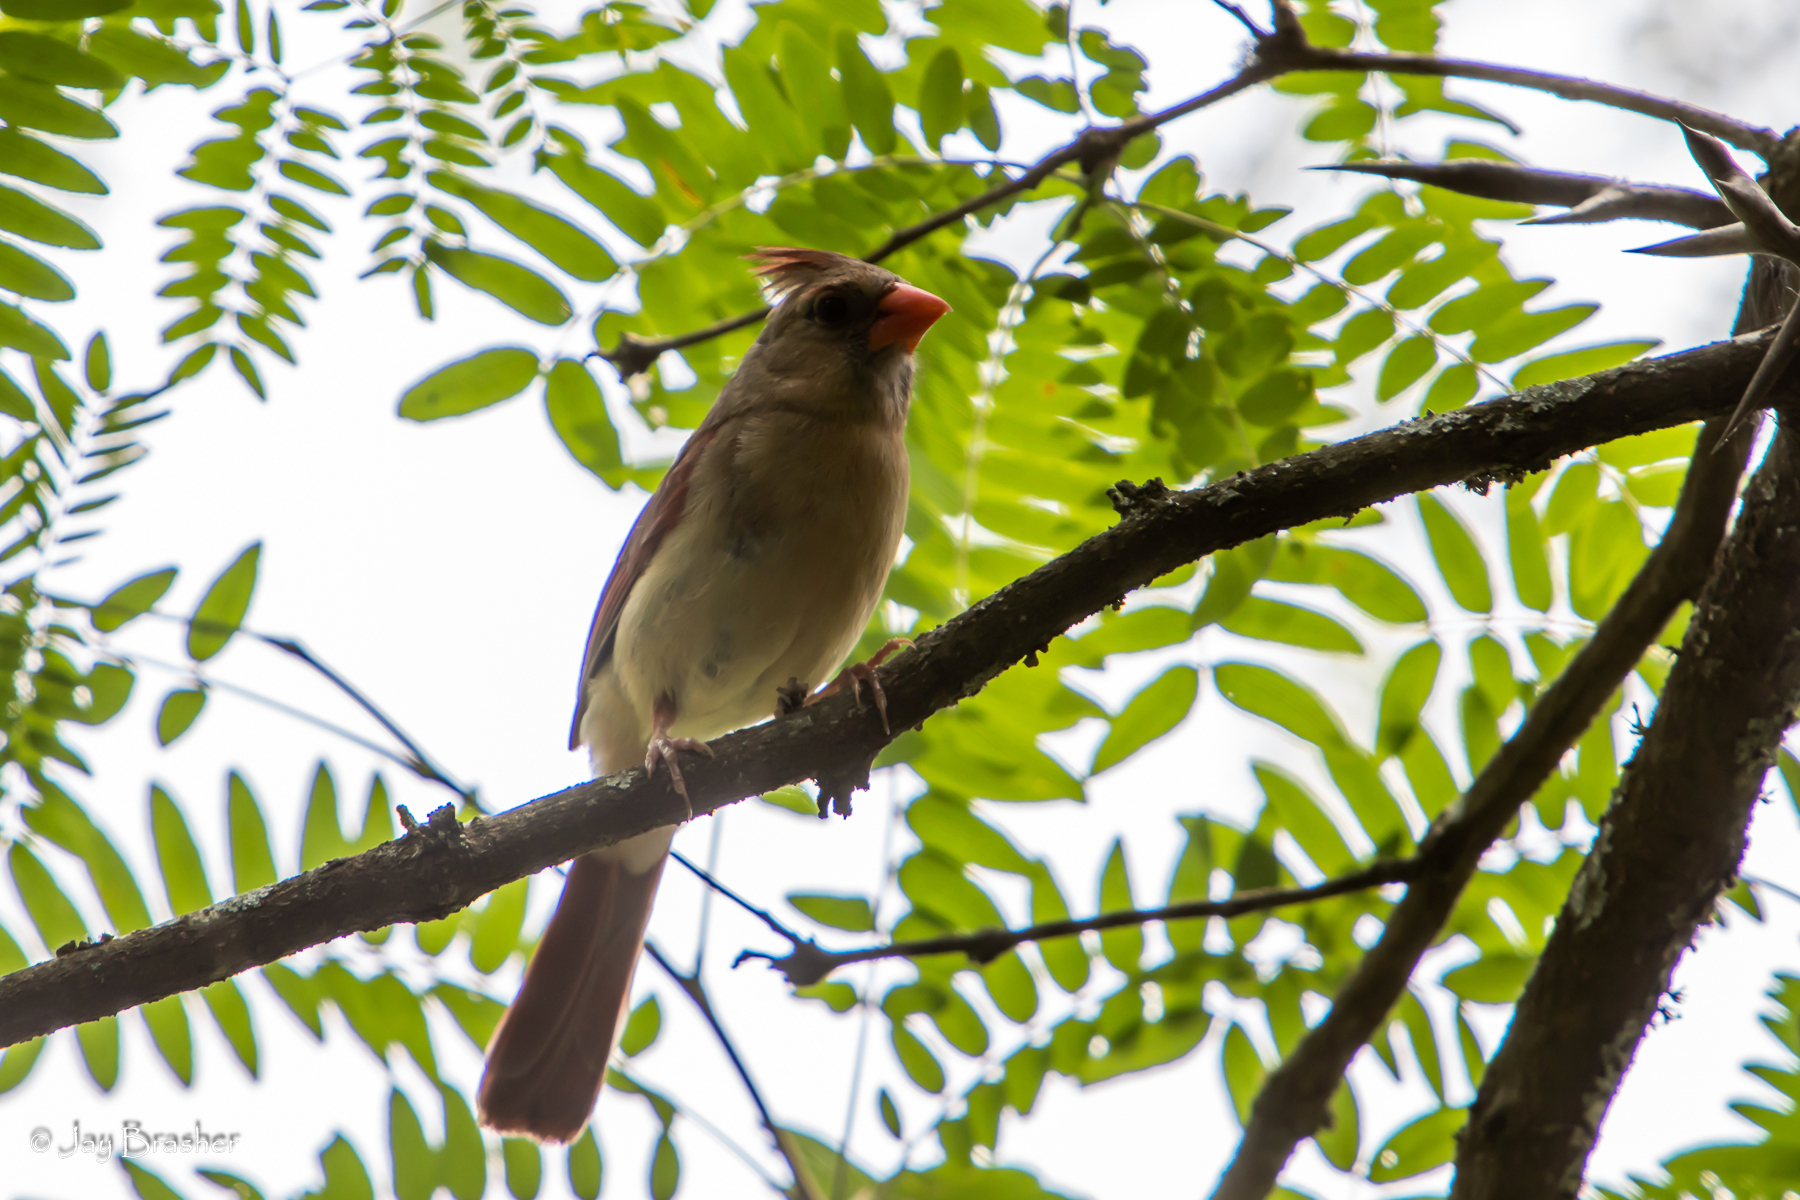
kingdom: Animalia
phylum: Chordata
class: Aves
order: Passeriformes
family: Cardinalidae
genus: Cardinalis
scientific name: Cardinalis cardinalis
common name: Northern cardinal
